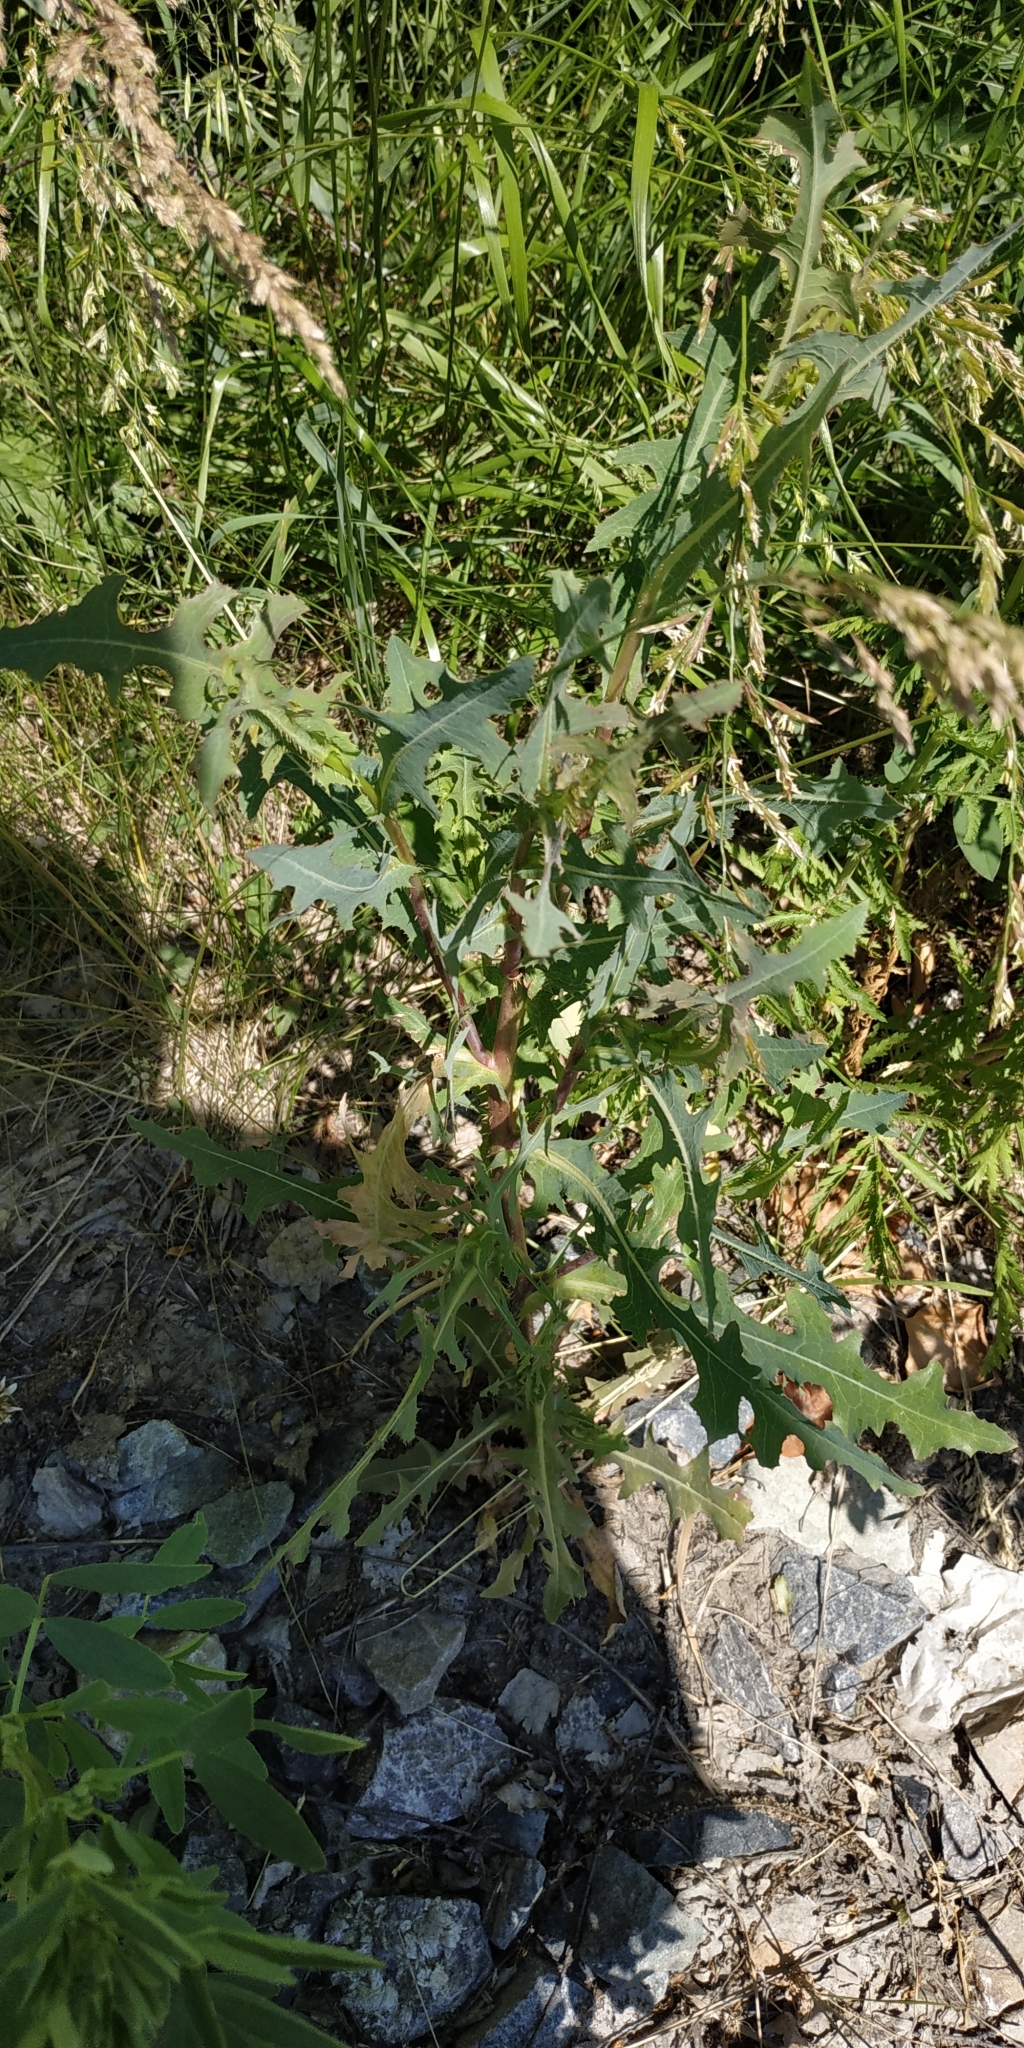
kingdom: Plantae
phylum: Tracheophyta
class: Magnoliopsida
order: Asterales
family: Asteraceae
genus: Lactuca
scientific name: Lactuca serriola
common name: Prickly lettuce
